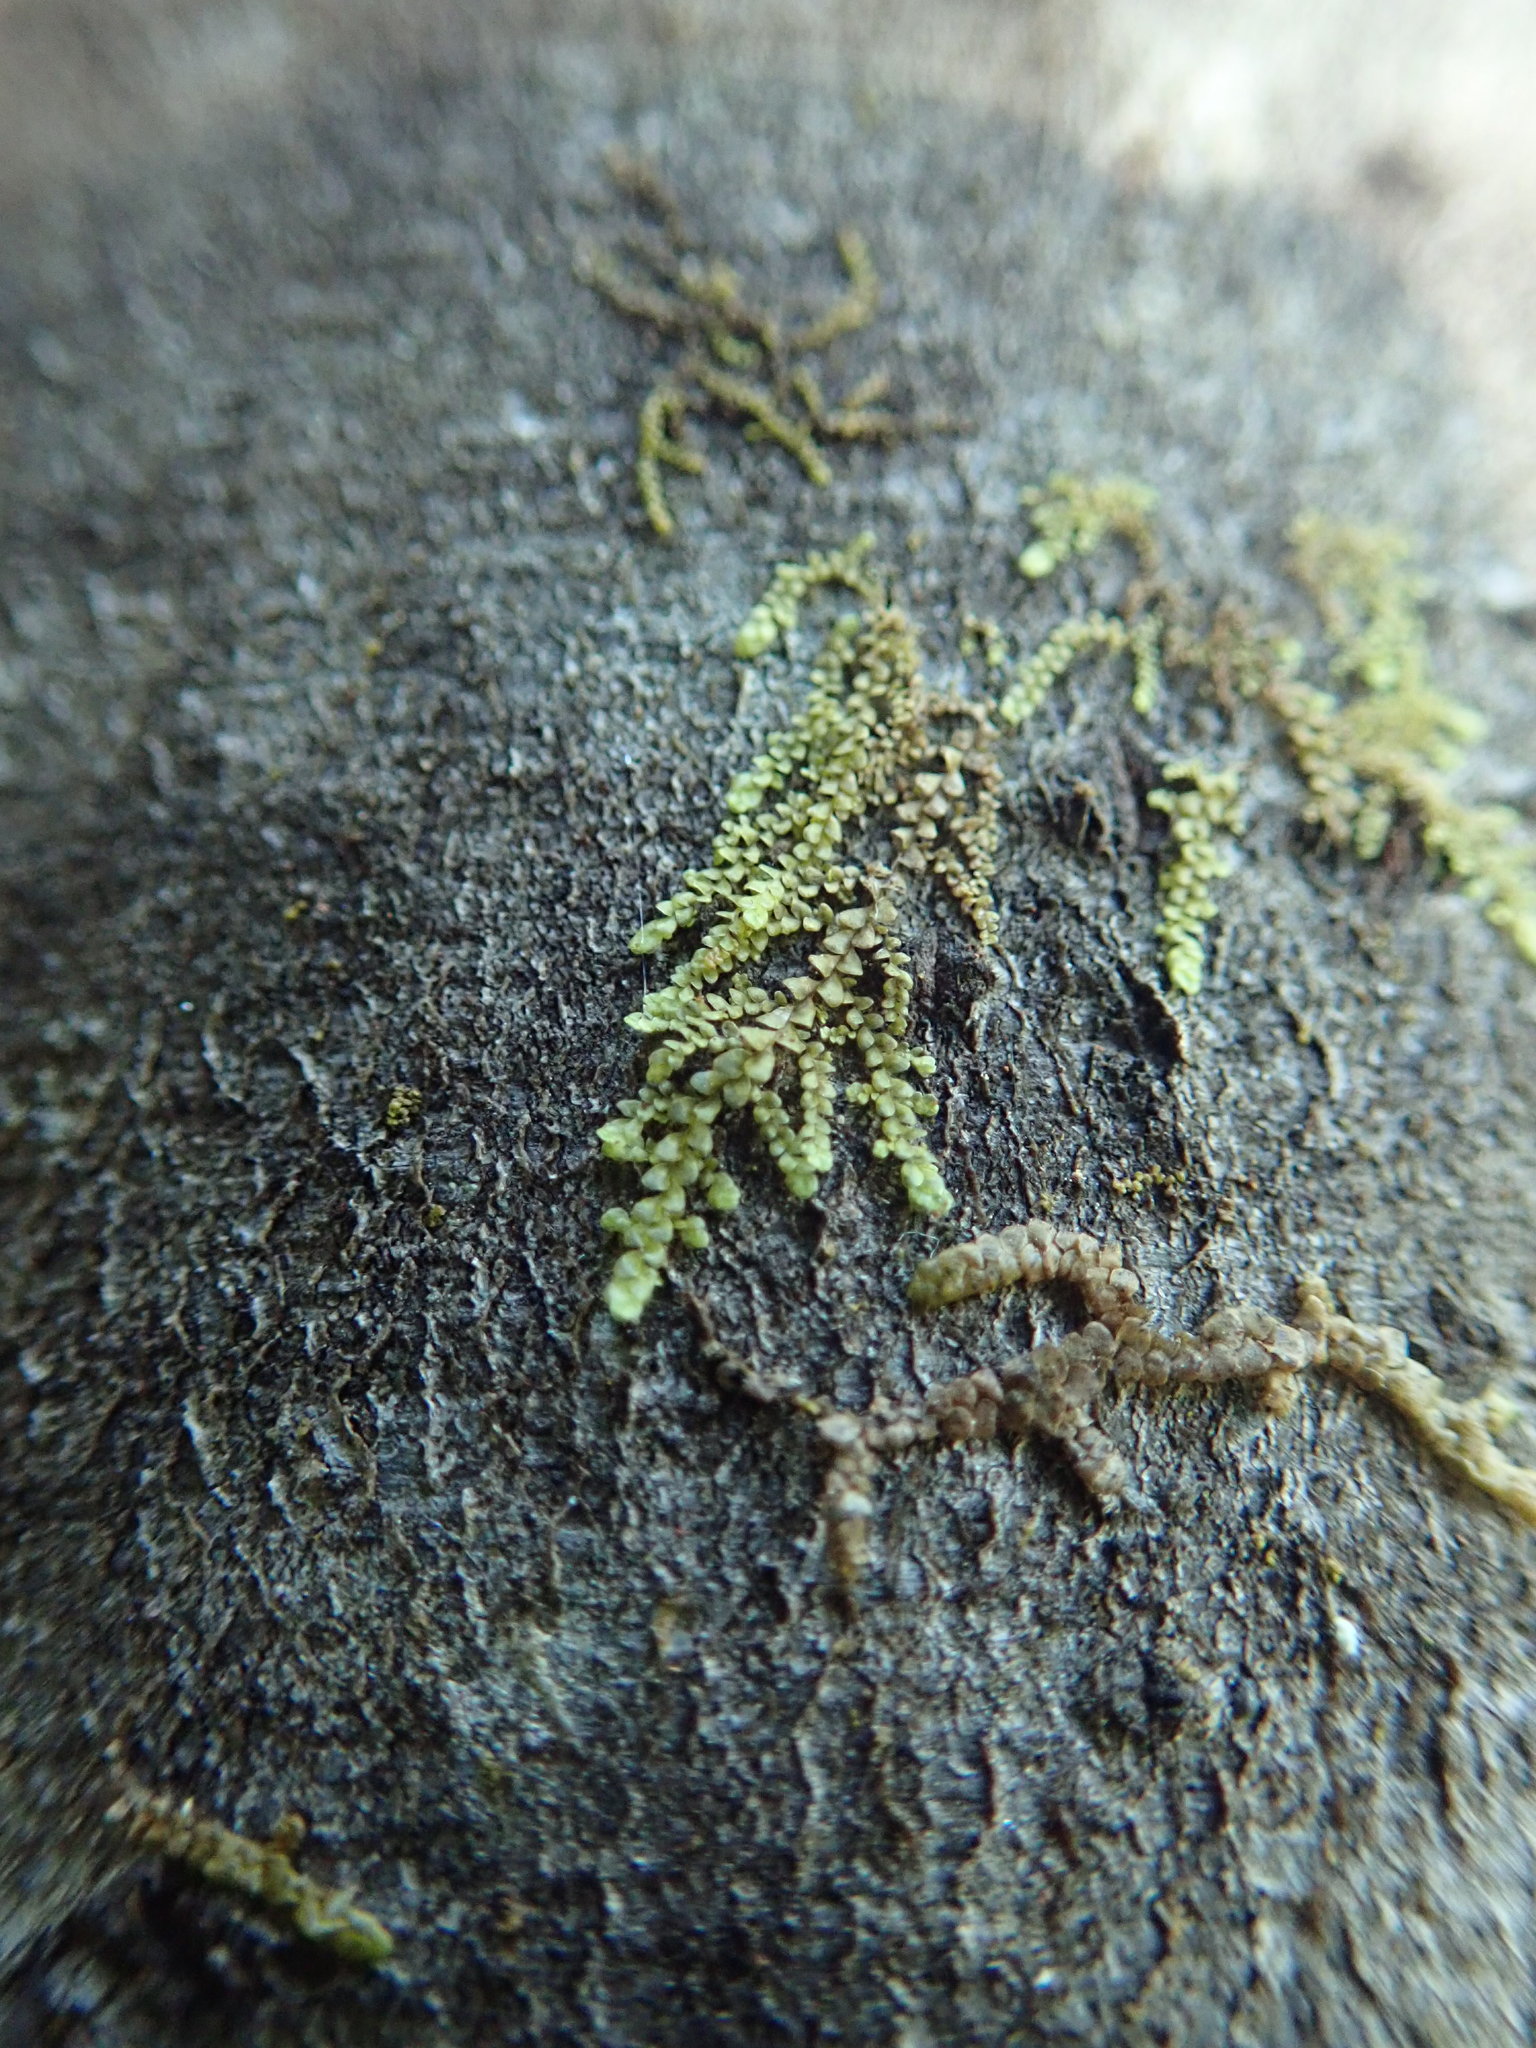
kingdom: Plantae
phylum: Marchantiophyta
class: Jungermanniopsida
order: Porellales
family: Radulaceae
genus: Radula
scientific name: Radula bolanderi
